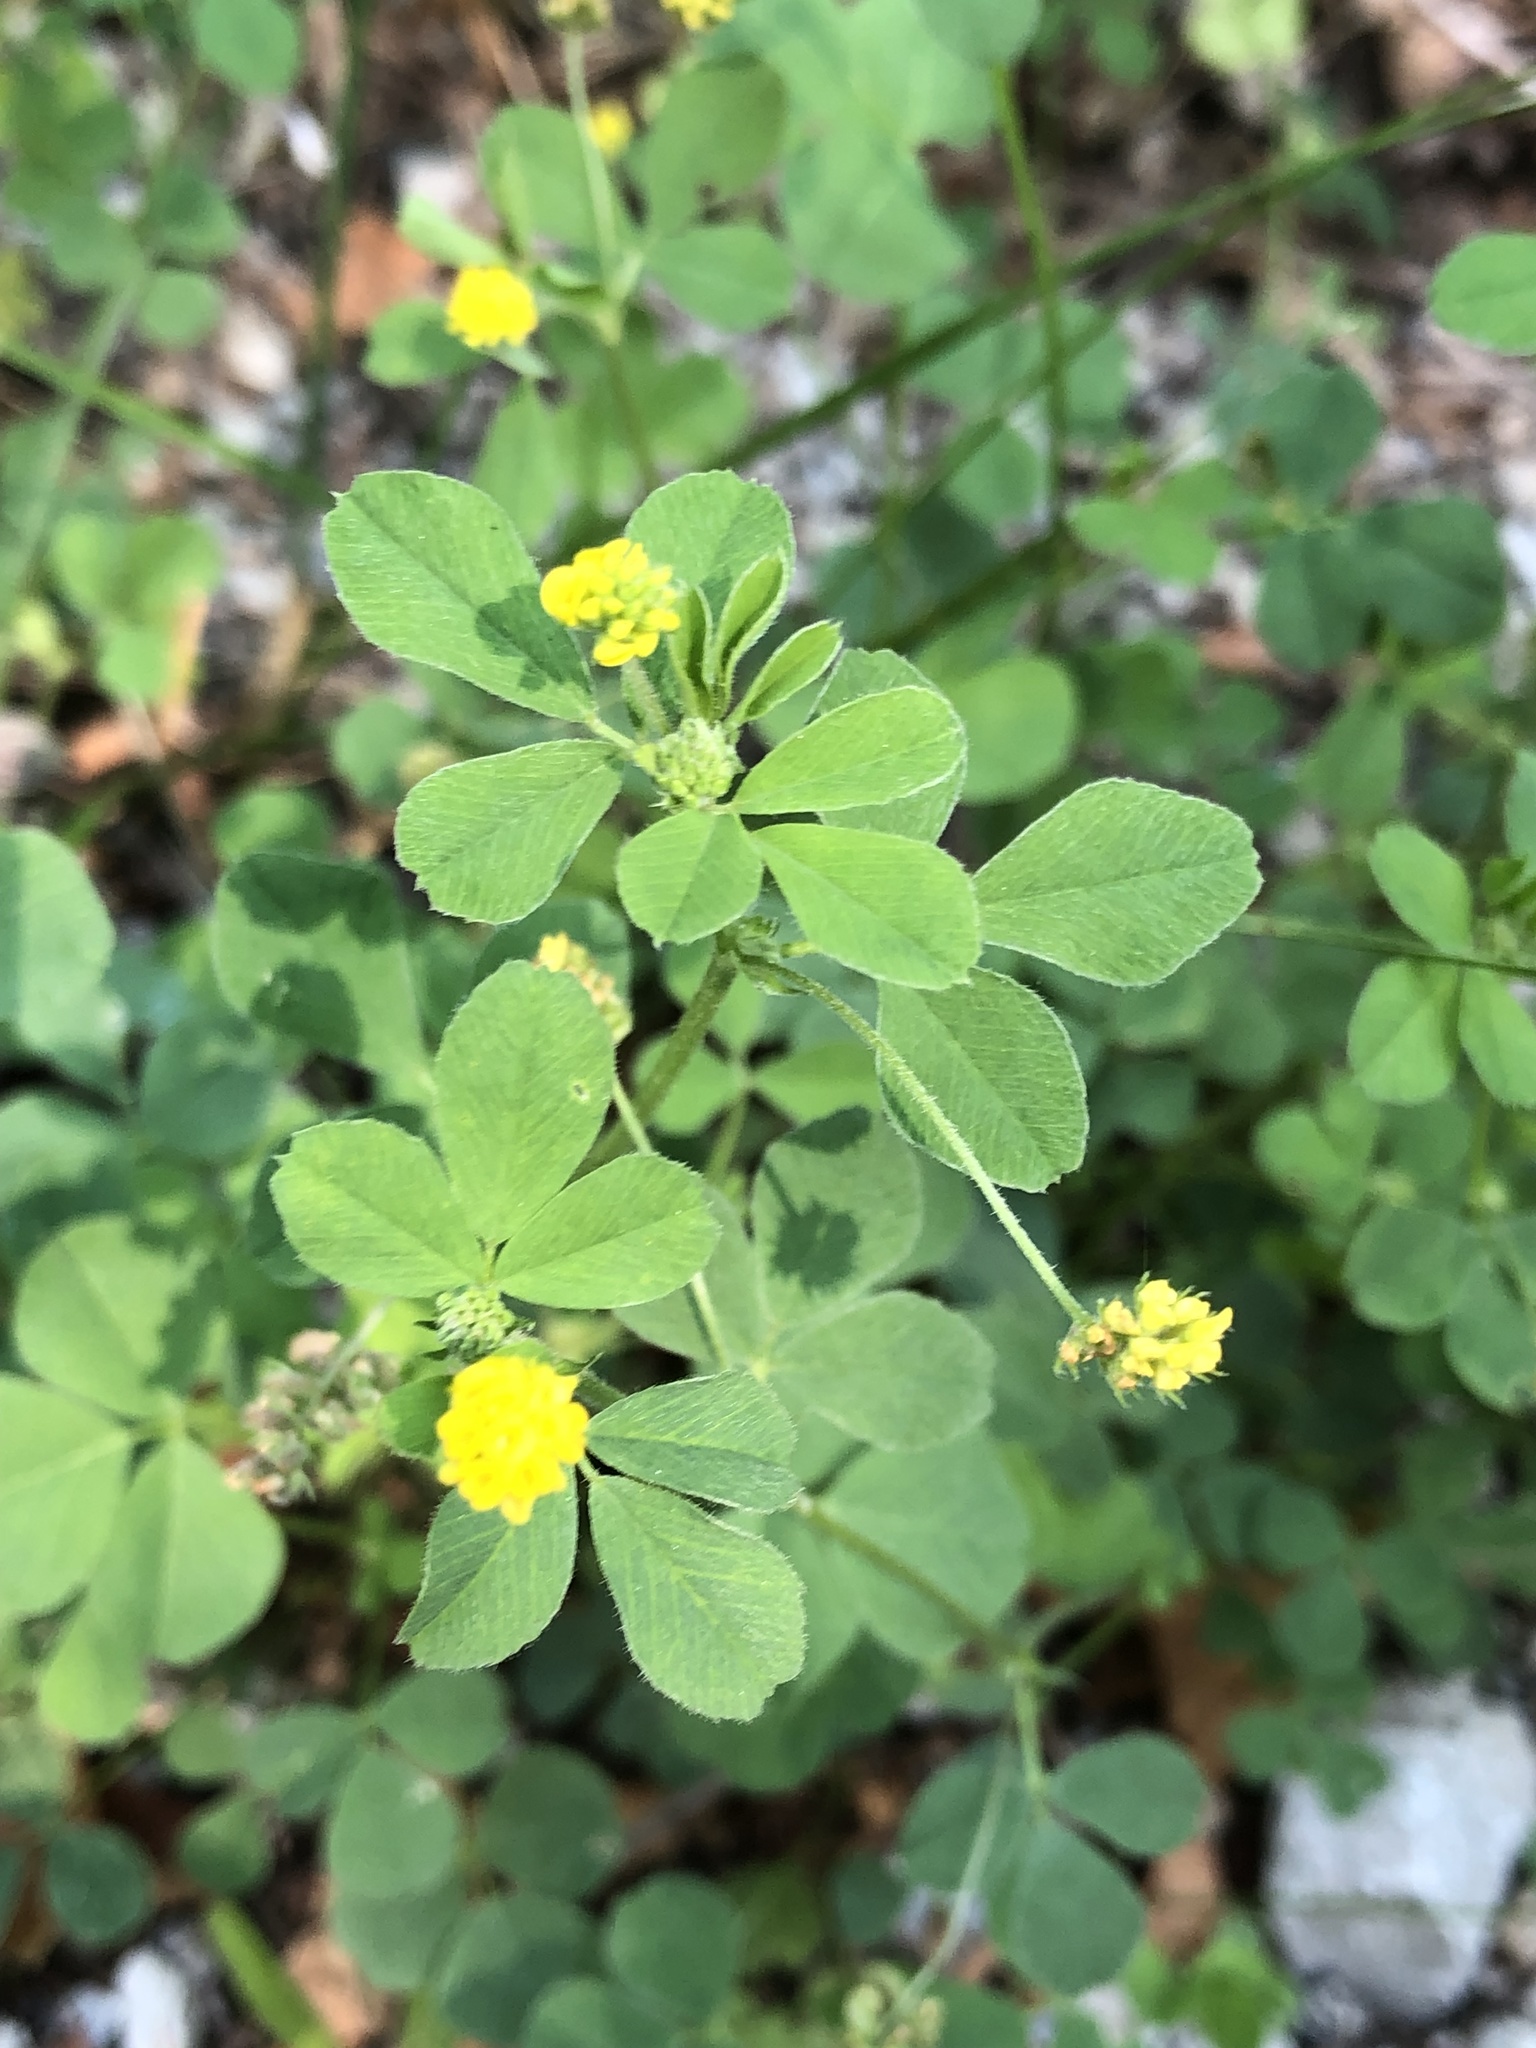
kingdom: Plantae
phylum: Tracheophyta
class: Magnoliopsida
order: Fabales
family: Fabaceae
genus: Medicago
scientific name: Medicago lupulina
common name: Black medick
